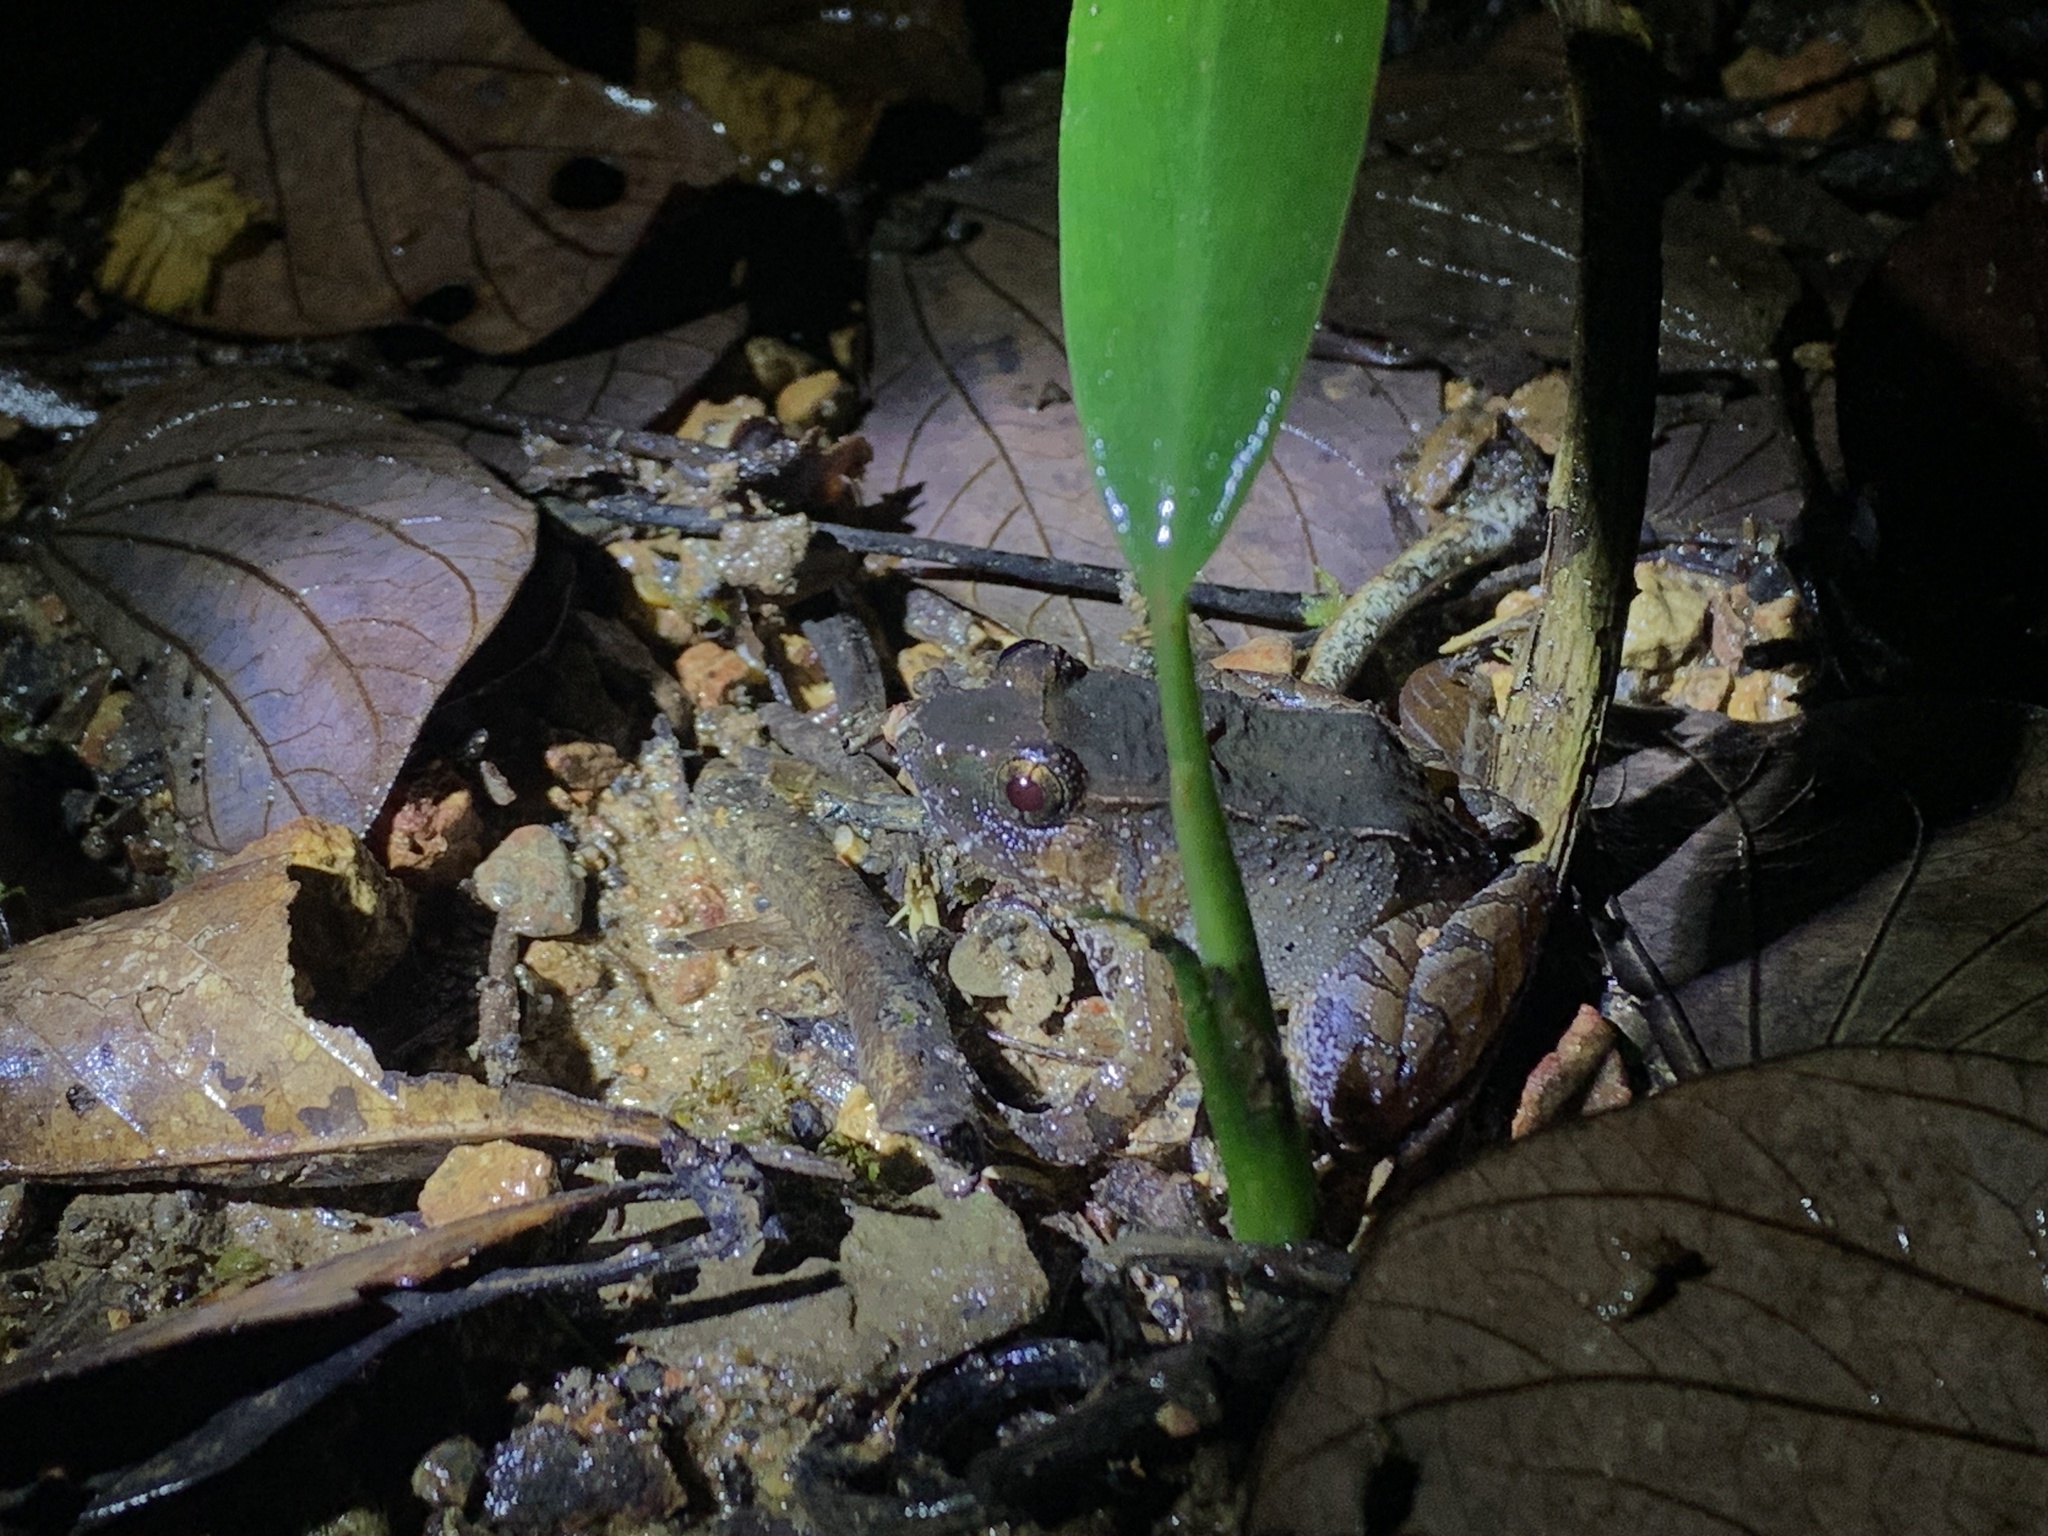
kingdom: Animalia
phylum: Chordata
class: Amphibia
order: Anura
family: Dicroglossidae
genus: Limnonectes
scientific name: Limnonectes palavanensis
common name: Smooth guardian frog
